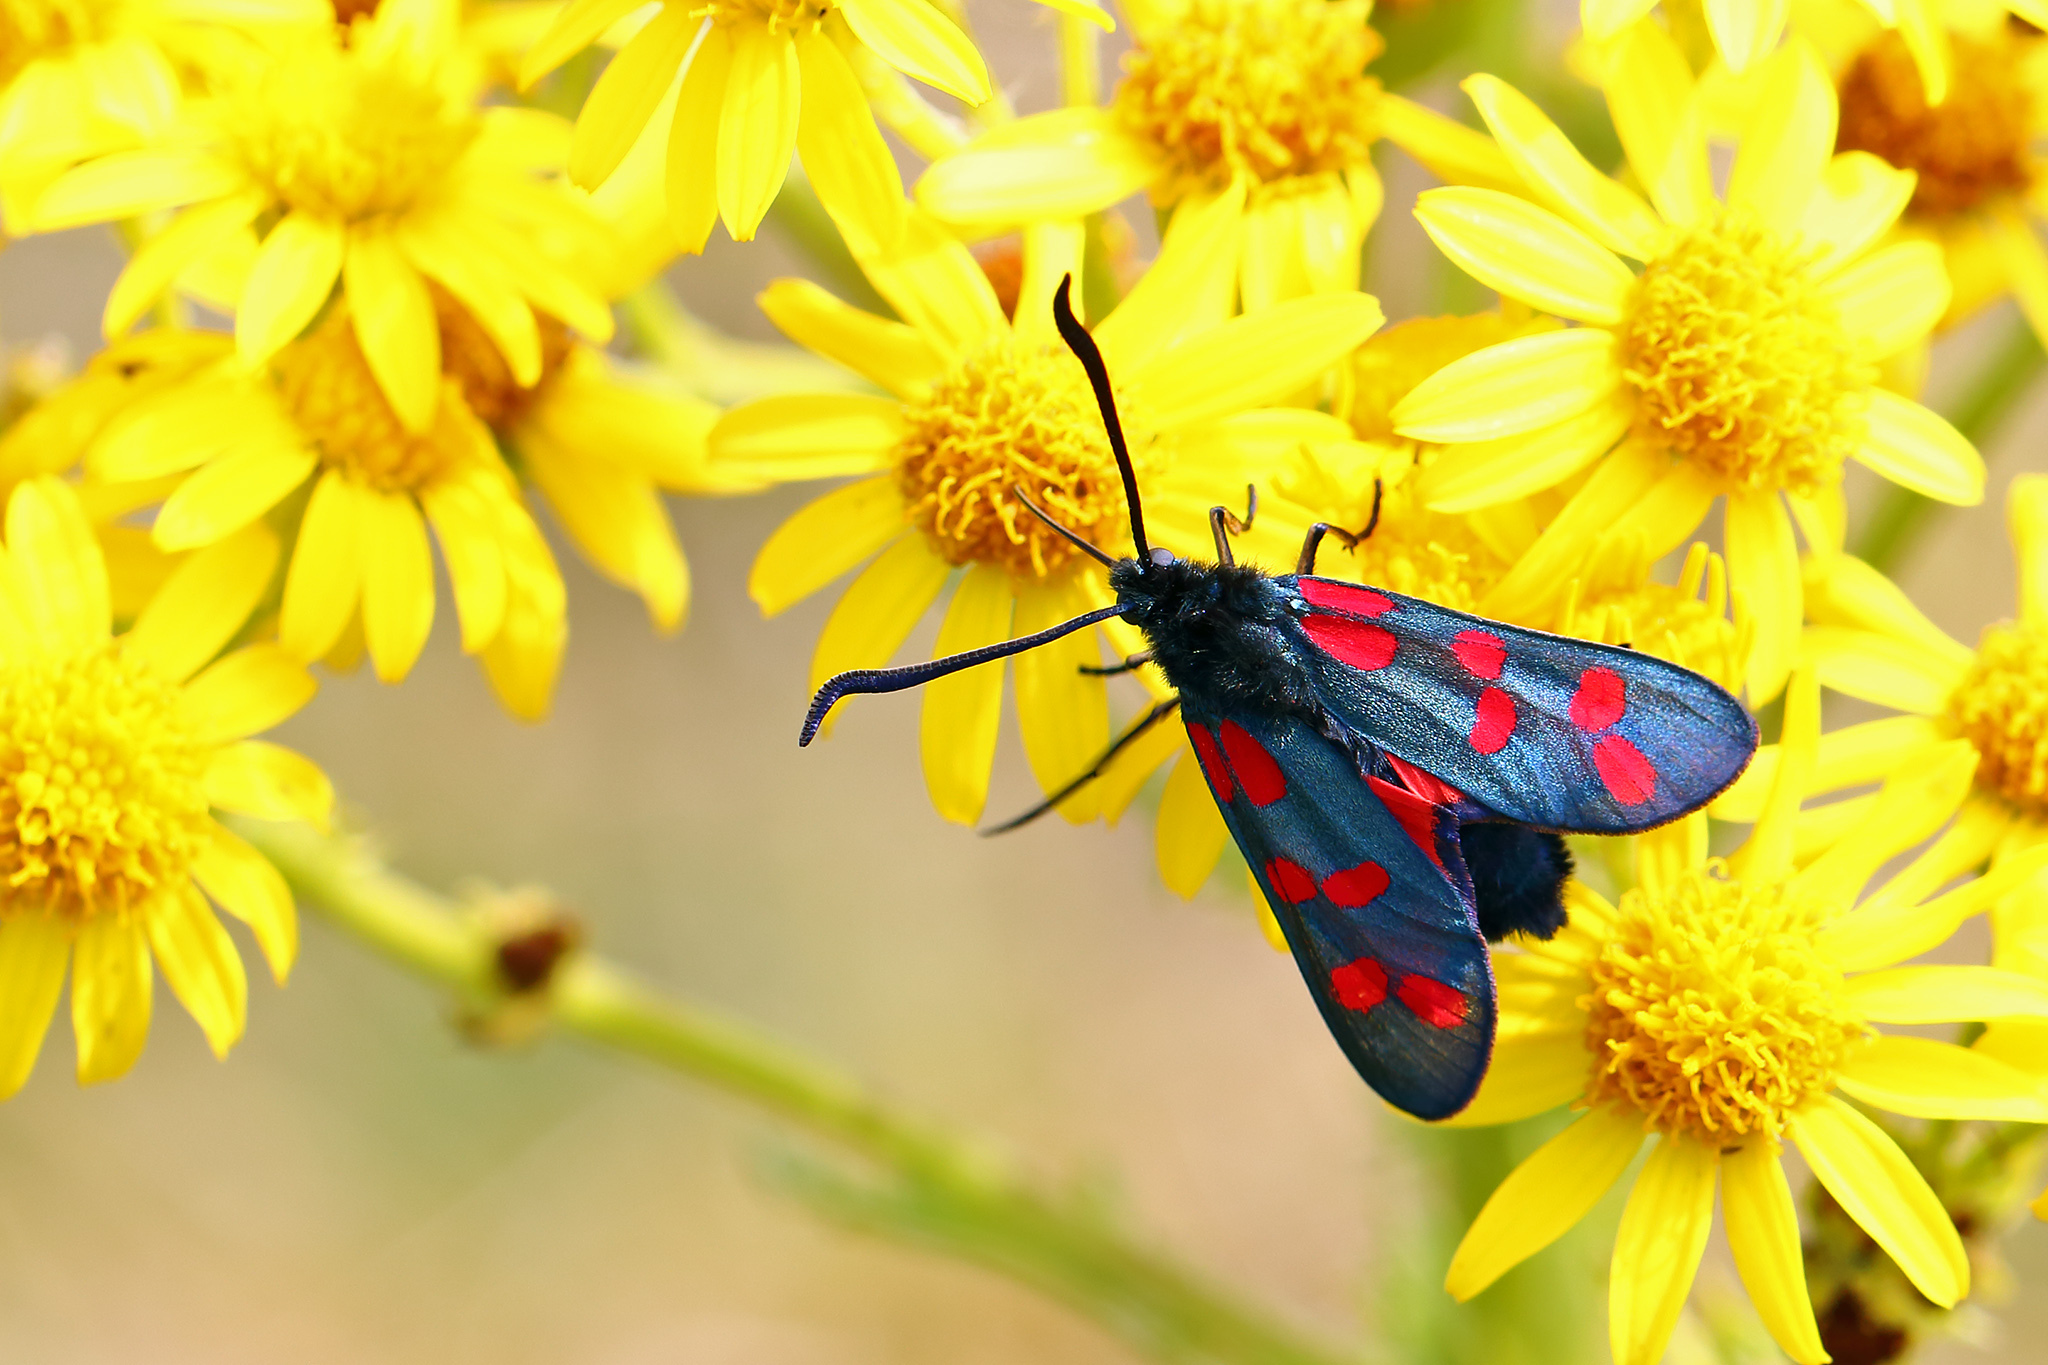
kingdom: Animalia
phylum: Arthropoda
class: Insecta
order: Lepidoptera
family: Zygaenidae
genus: Zygaena
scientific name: Zygaena filipendulae
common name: Six-spot burnet
